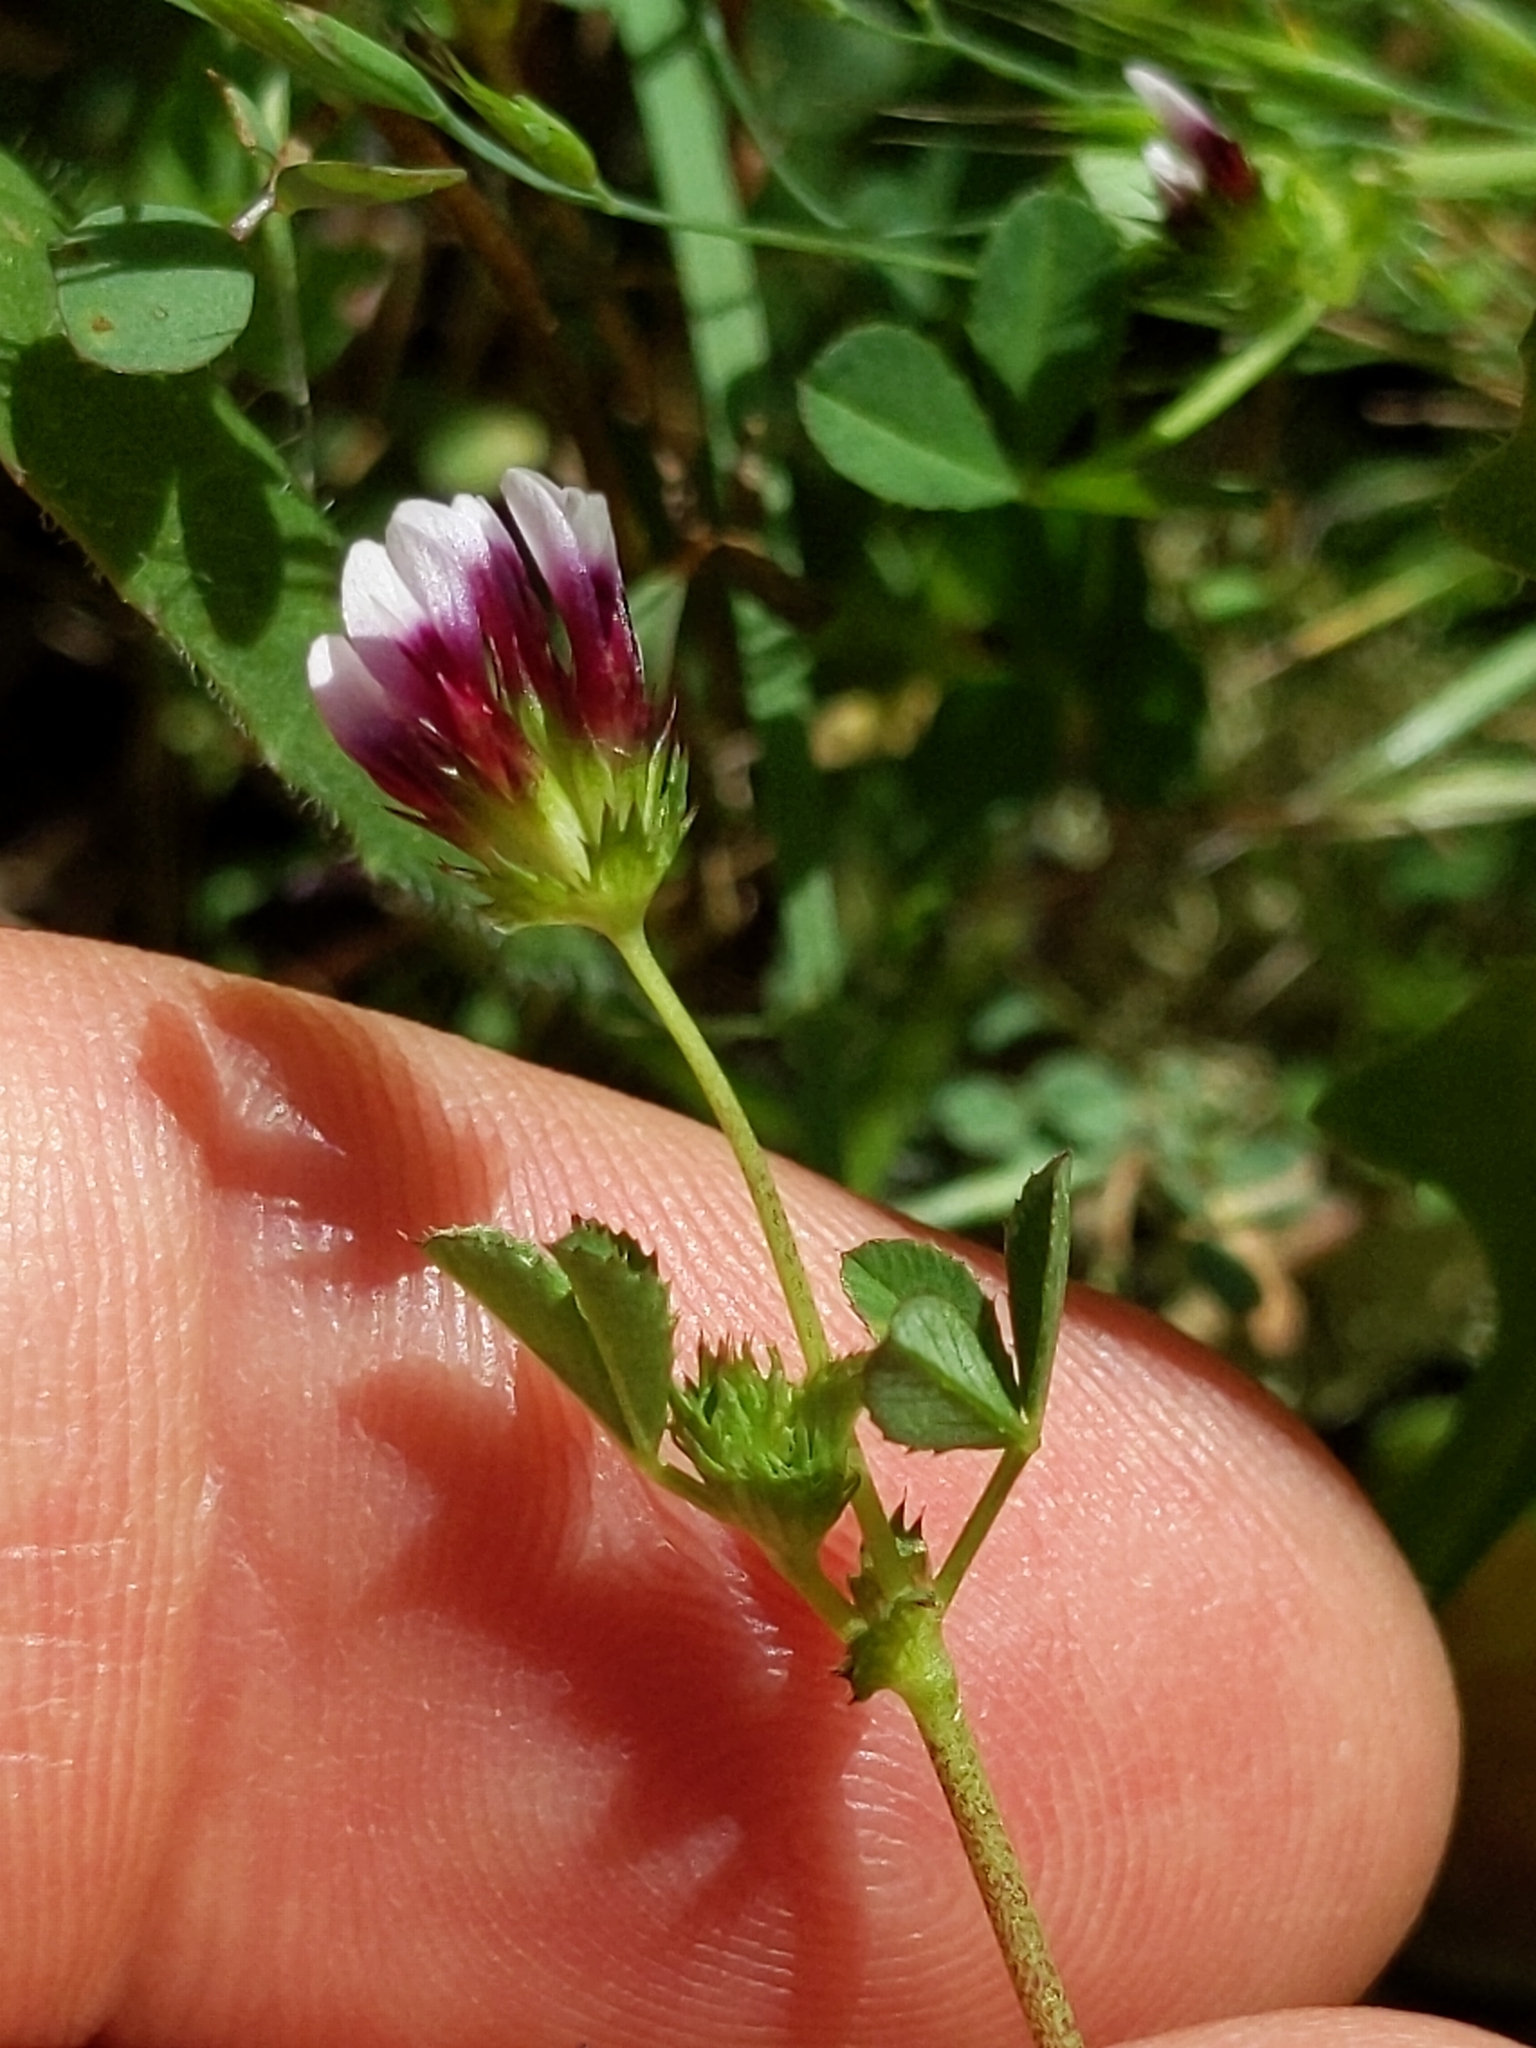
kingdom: Plantae
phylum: Tracheophyta
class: Magnoliopsida
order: Fabales
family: Fabaceae
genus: Trifolium
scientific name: Trifolium variegatum
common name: Whitetip clover
